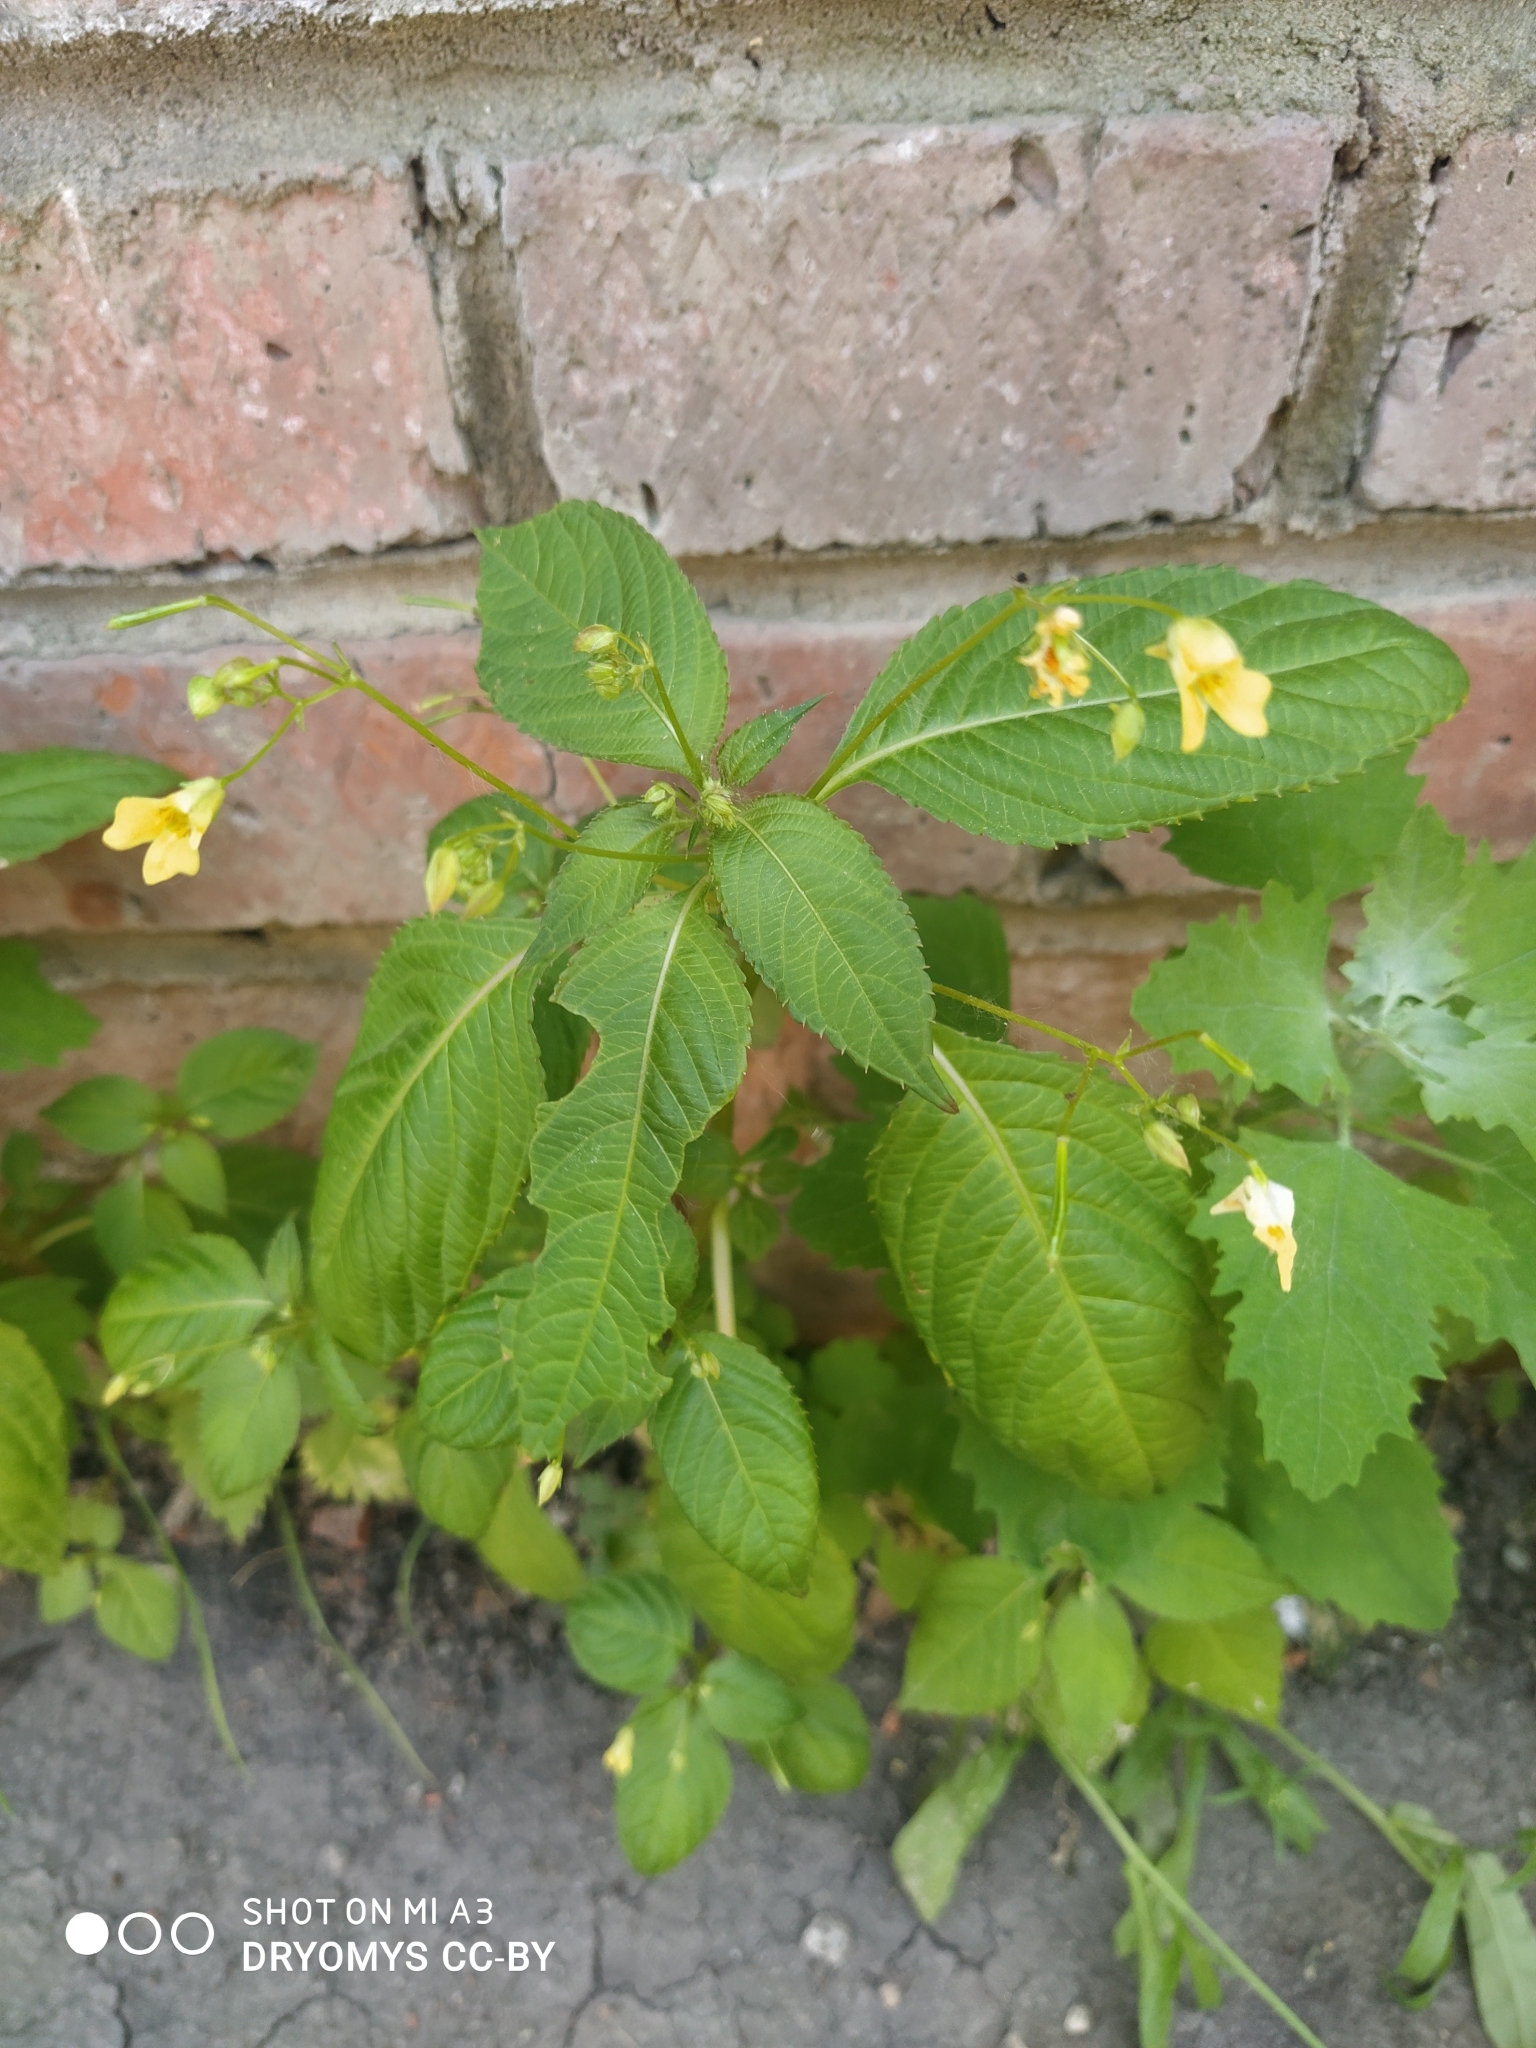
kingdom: Plantae
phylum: Tracheophyta
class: Magnoliopsida
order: Ericales
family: Balsaminaceae
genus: Impatiens
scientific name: Impatiens parviflora
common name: Small balsam
